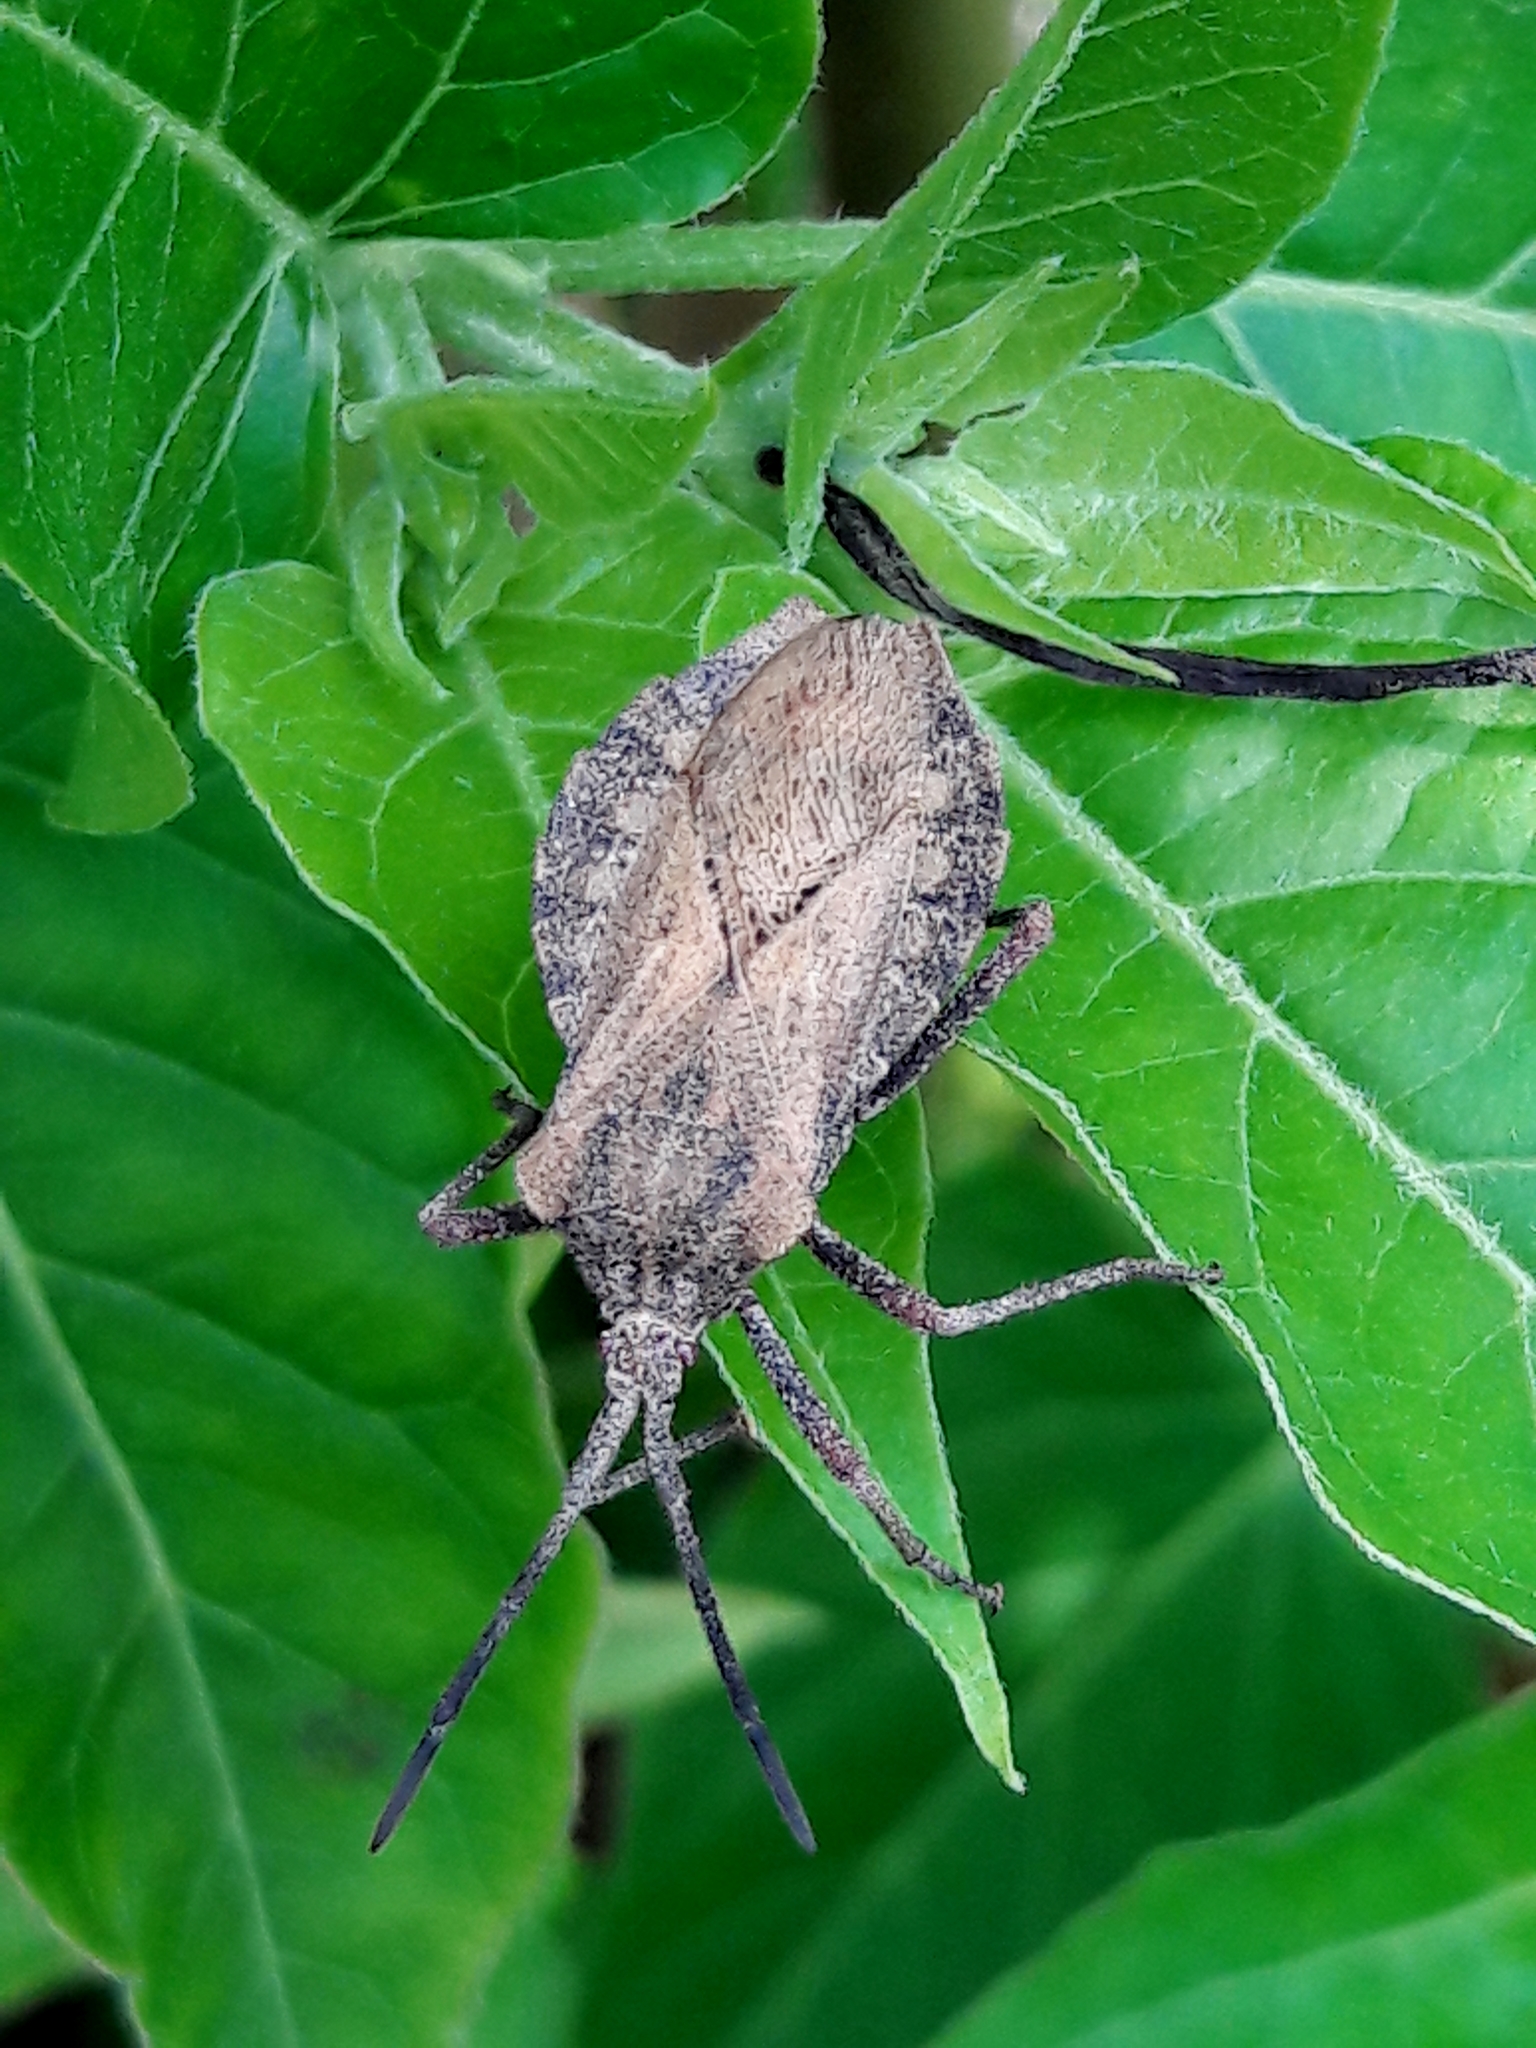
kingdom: Animalia
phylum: Arthropoda
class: Insecta
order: Hemiptera
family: Coreidae
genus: Spartocera
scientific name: Spartocera fusca
